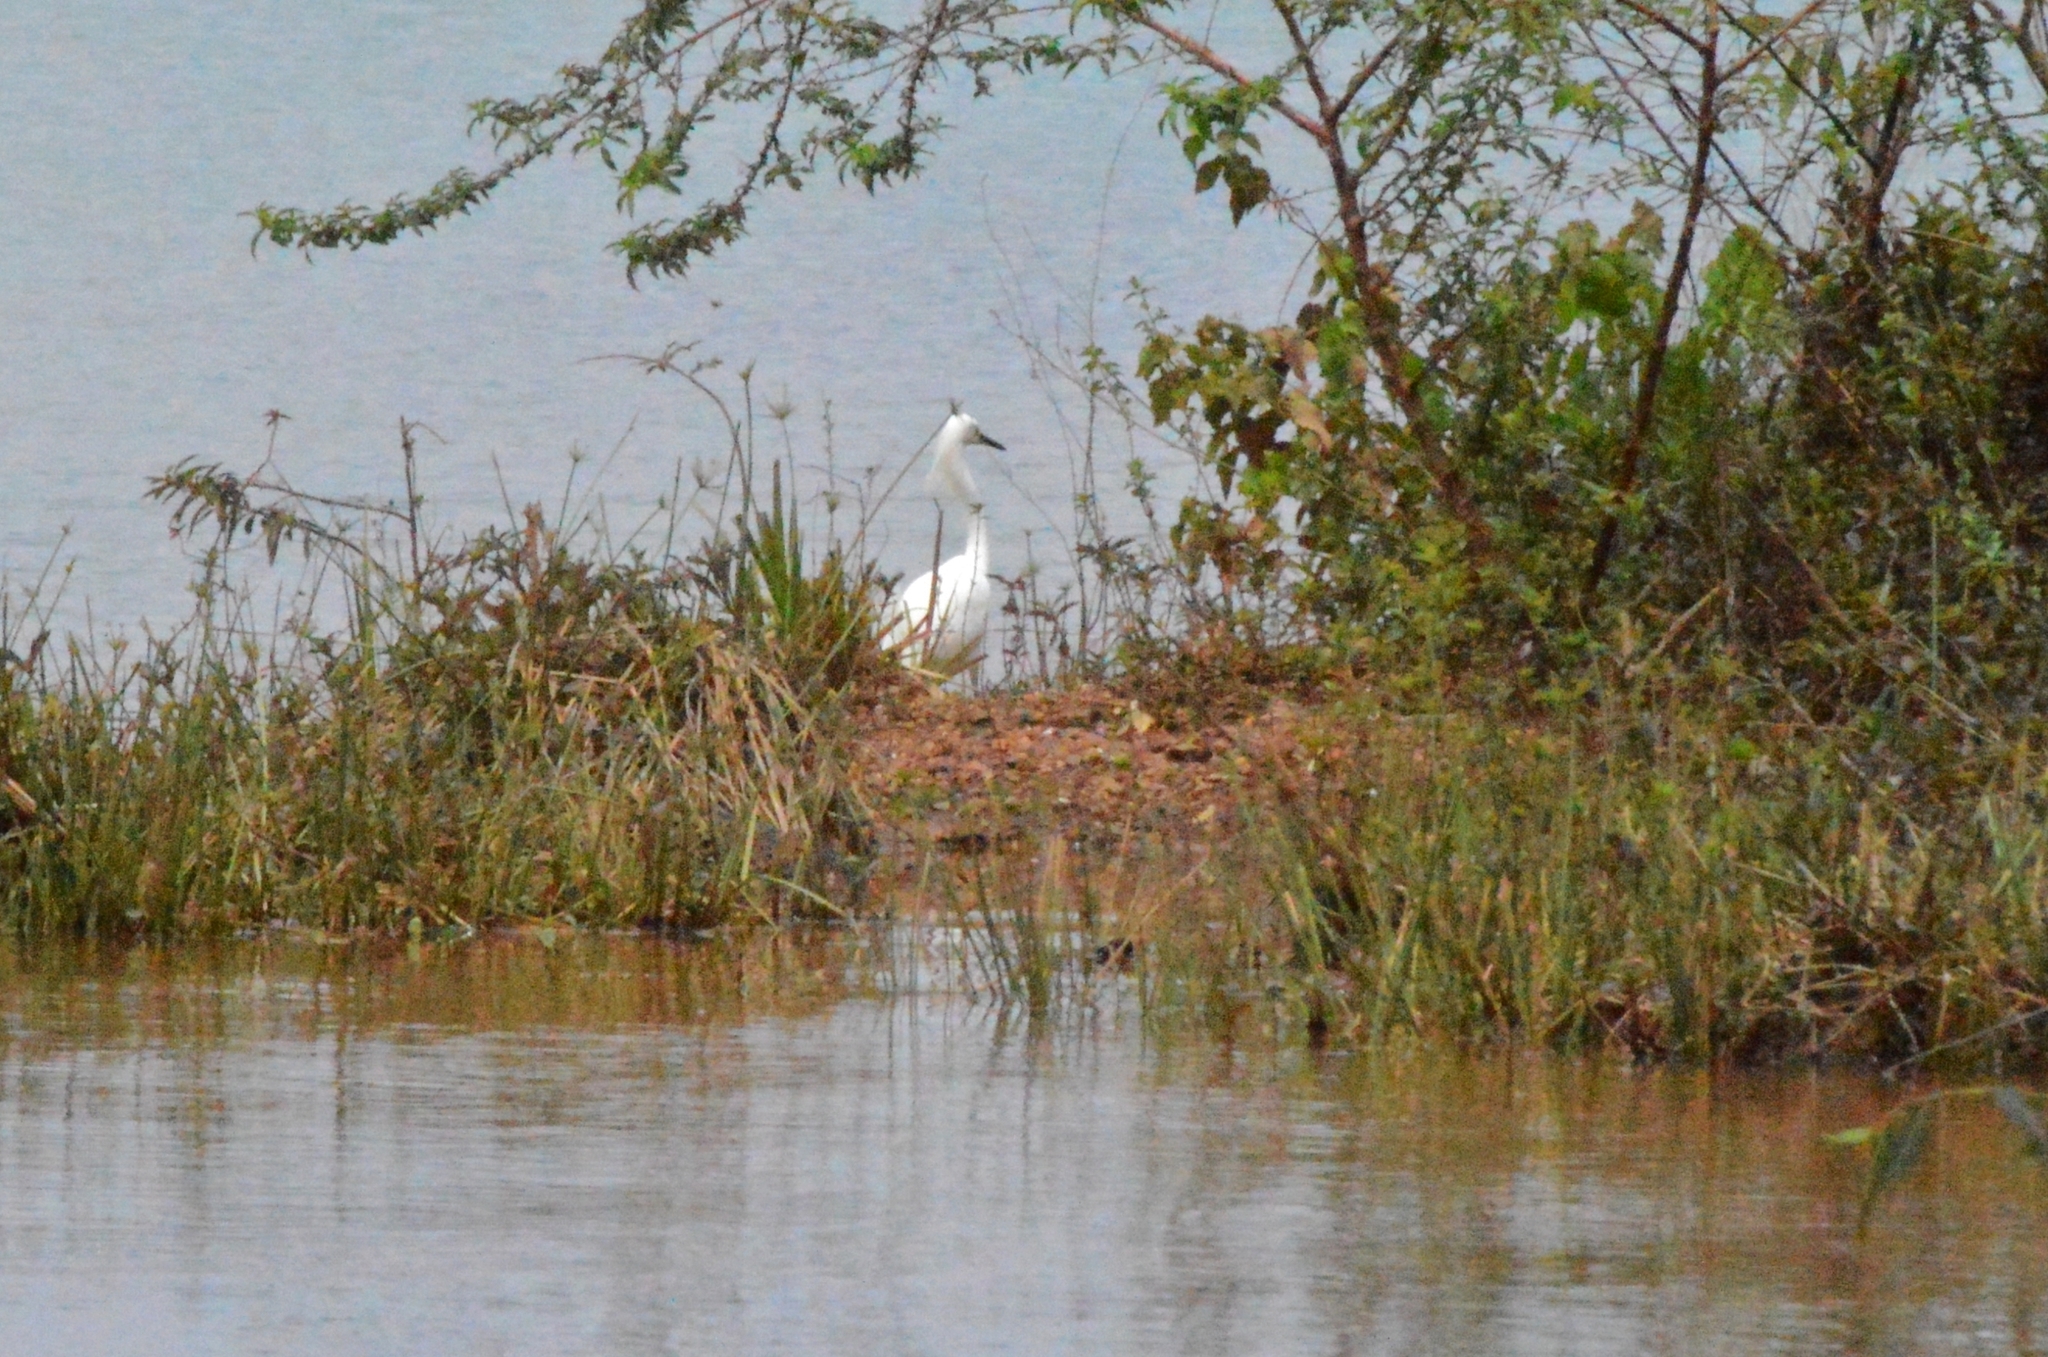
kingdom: Animalia
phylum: Chordata
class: Aves
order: Pelecaniformes
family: Ardeidae
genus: Egretta
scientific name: Egretta thula
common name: Snowy egret
